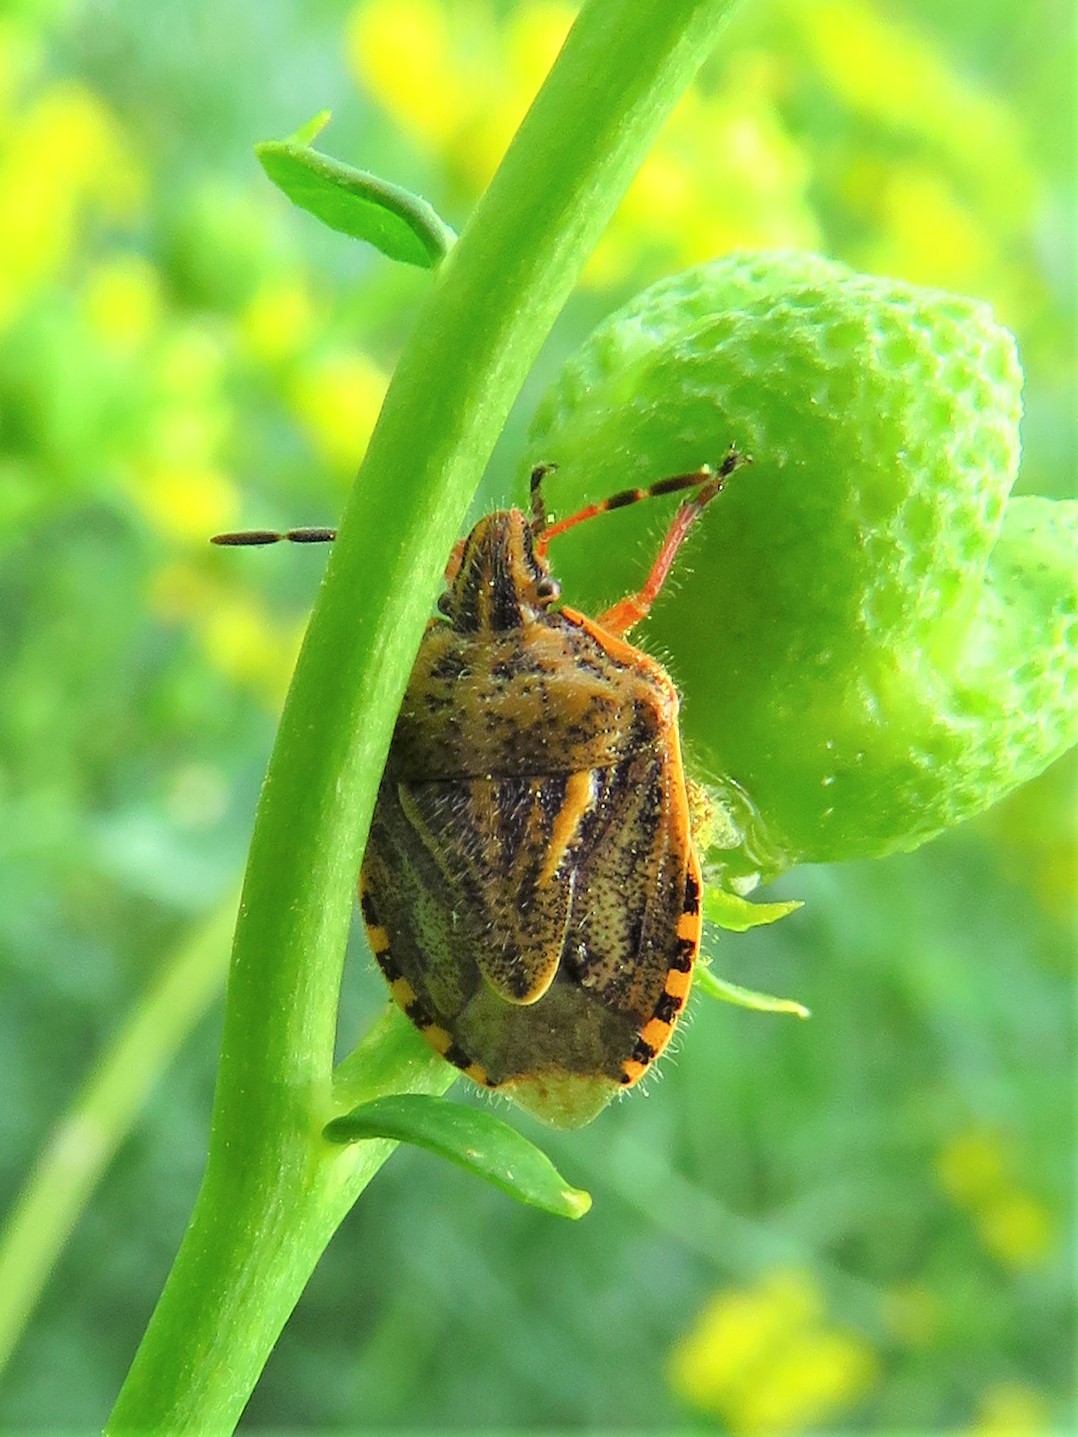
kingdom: Animalia
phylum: Arthropoda
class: Insecta
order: Hemiptera
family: Pentatomidae
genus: Trichopepla
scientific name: Trichopepla semivittata
